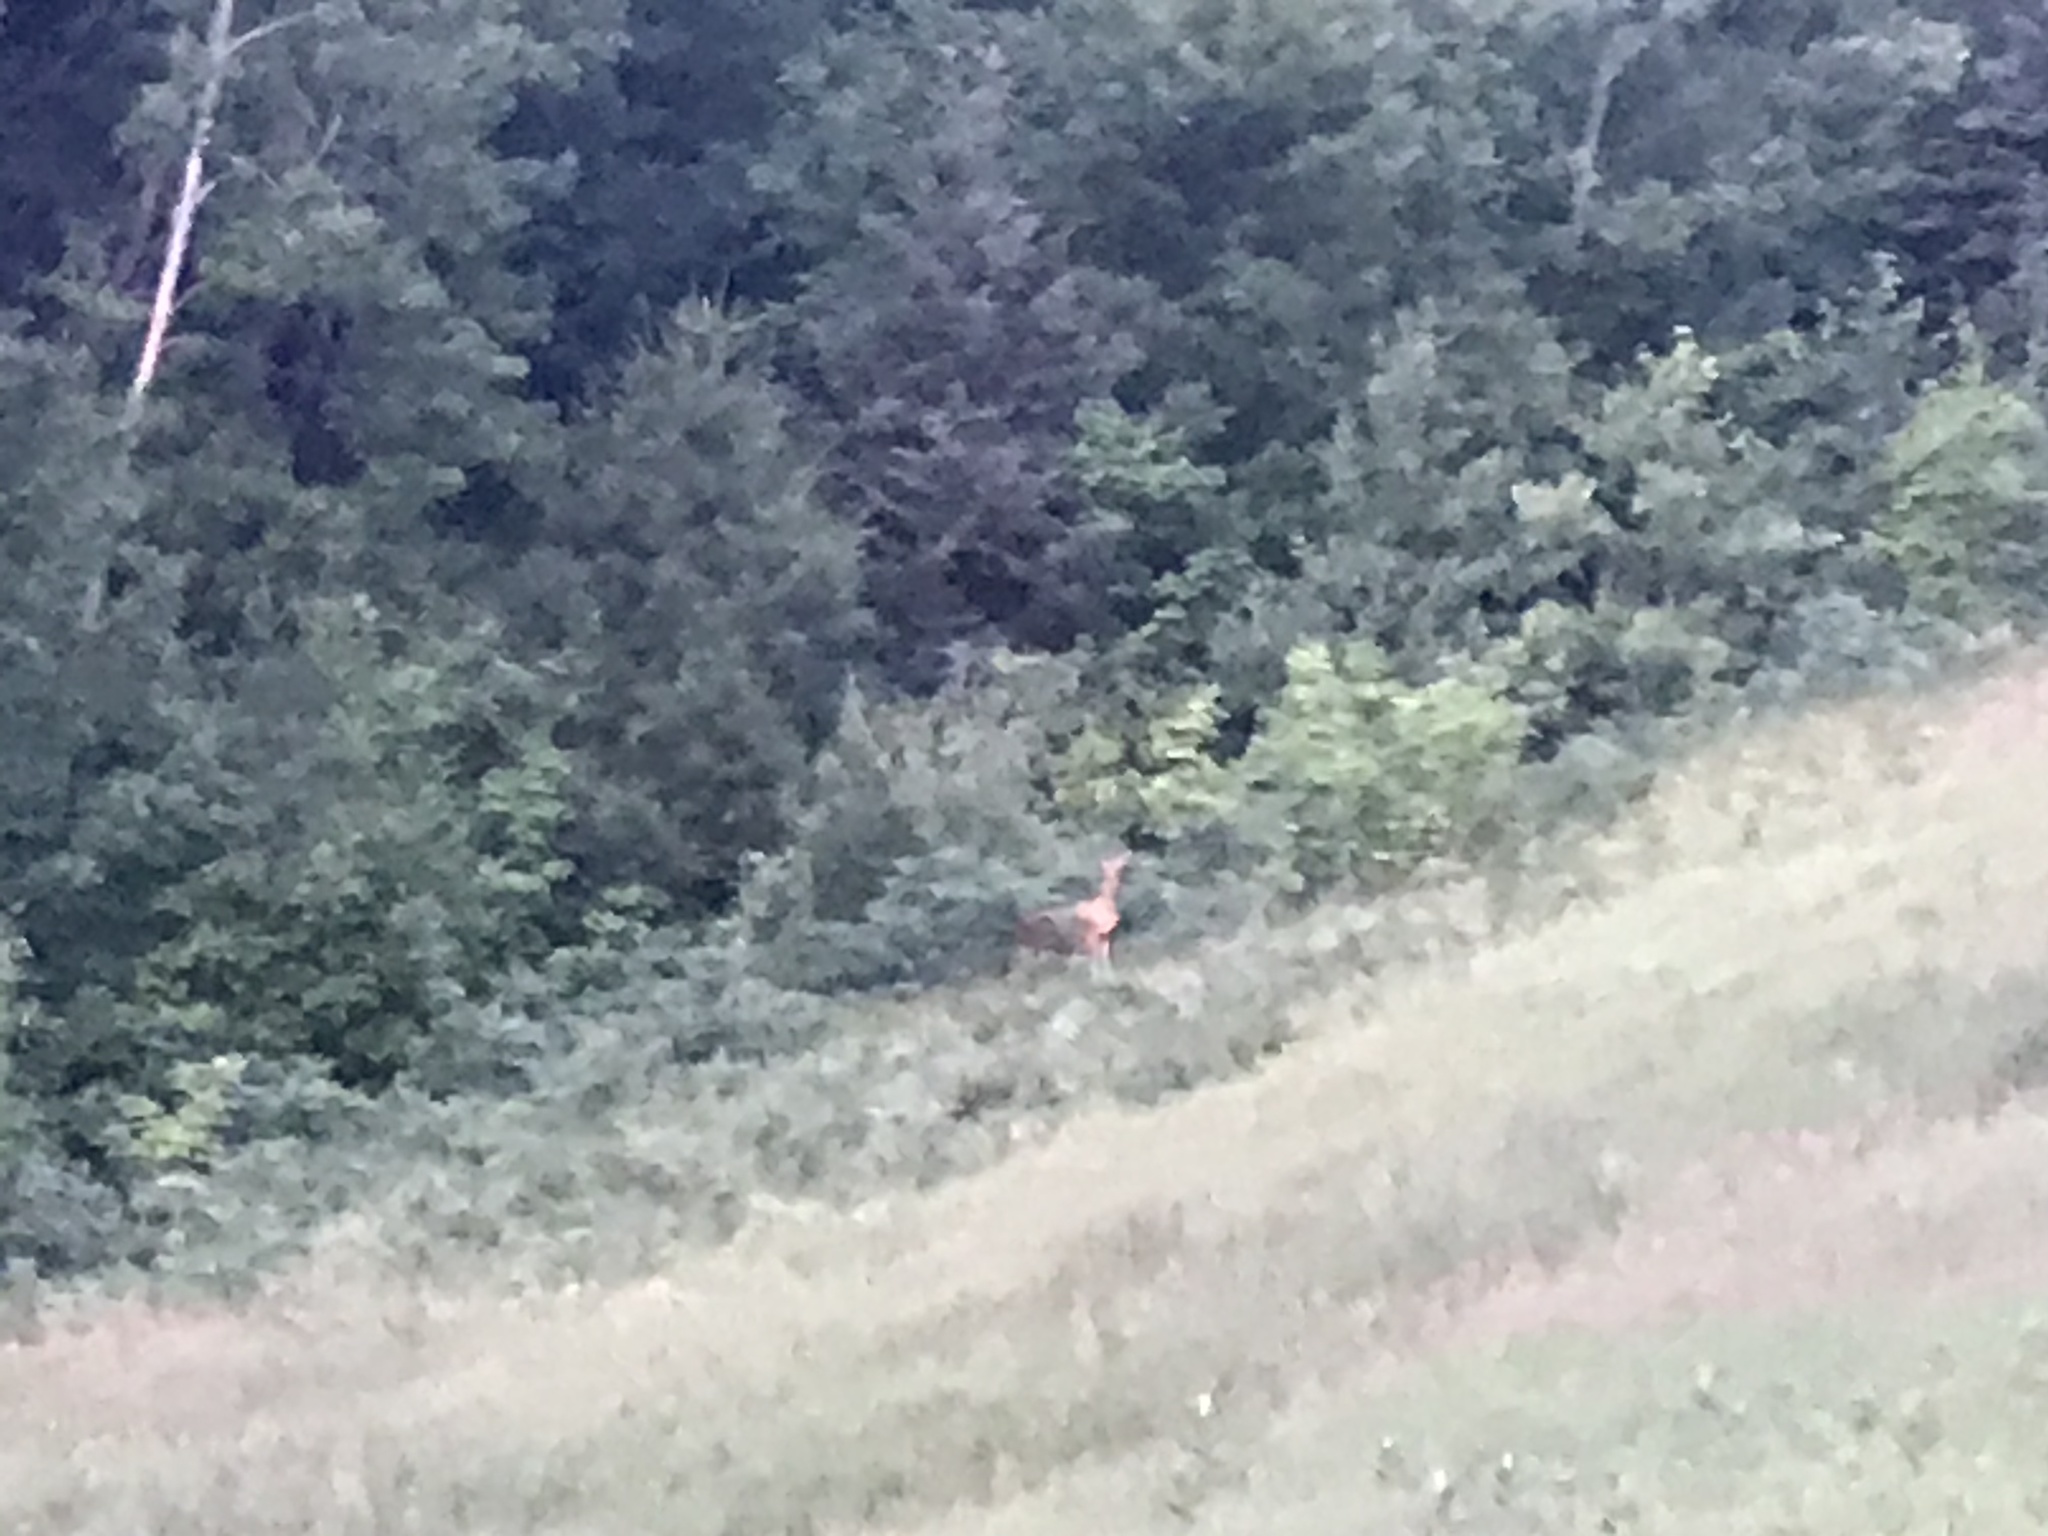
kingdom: Animalia
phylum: Chordata
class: Mammalia
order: Artiodactyla
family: Cervidae
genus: Odocoileus
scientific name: Odocoileus virginianus
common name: White-tailed deer
